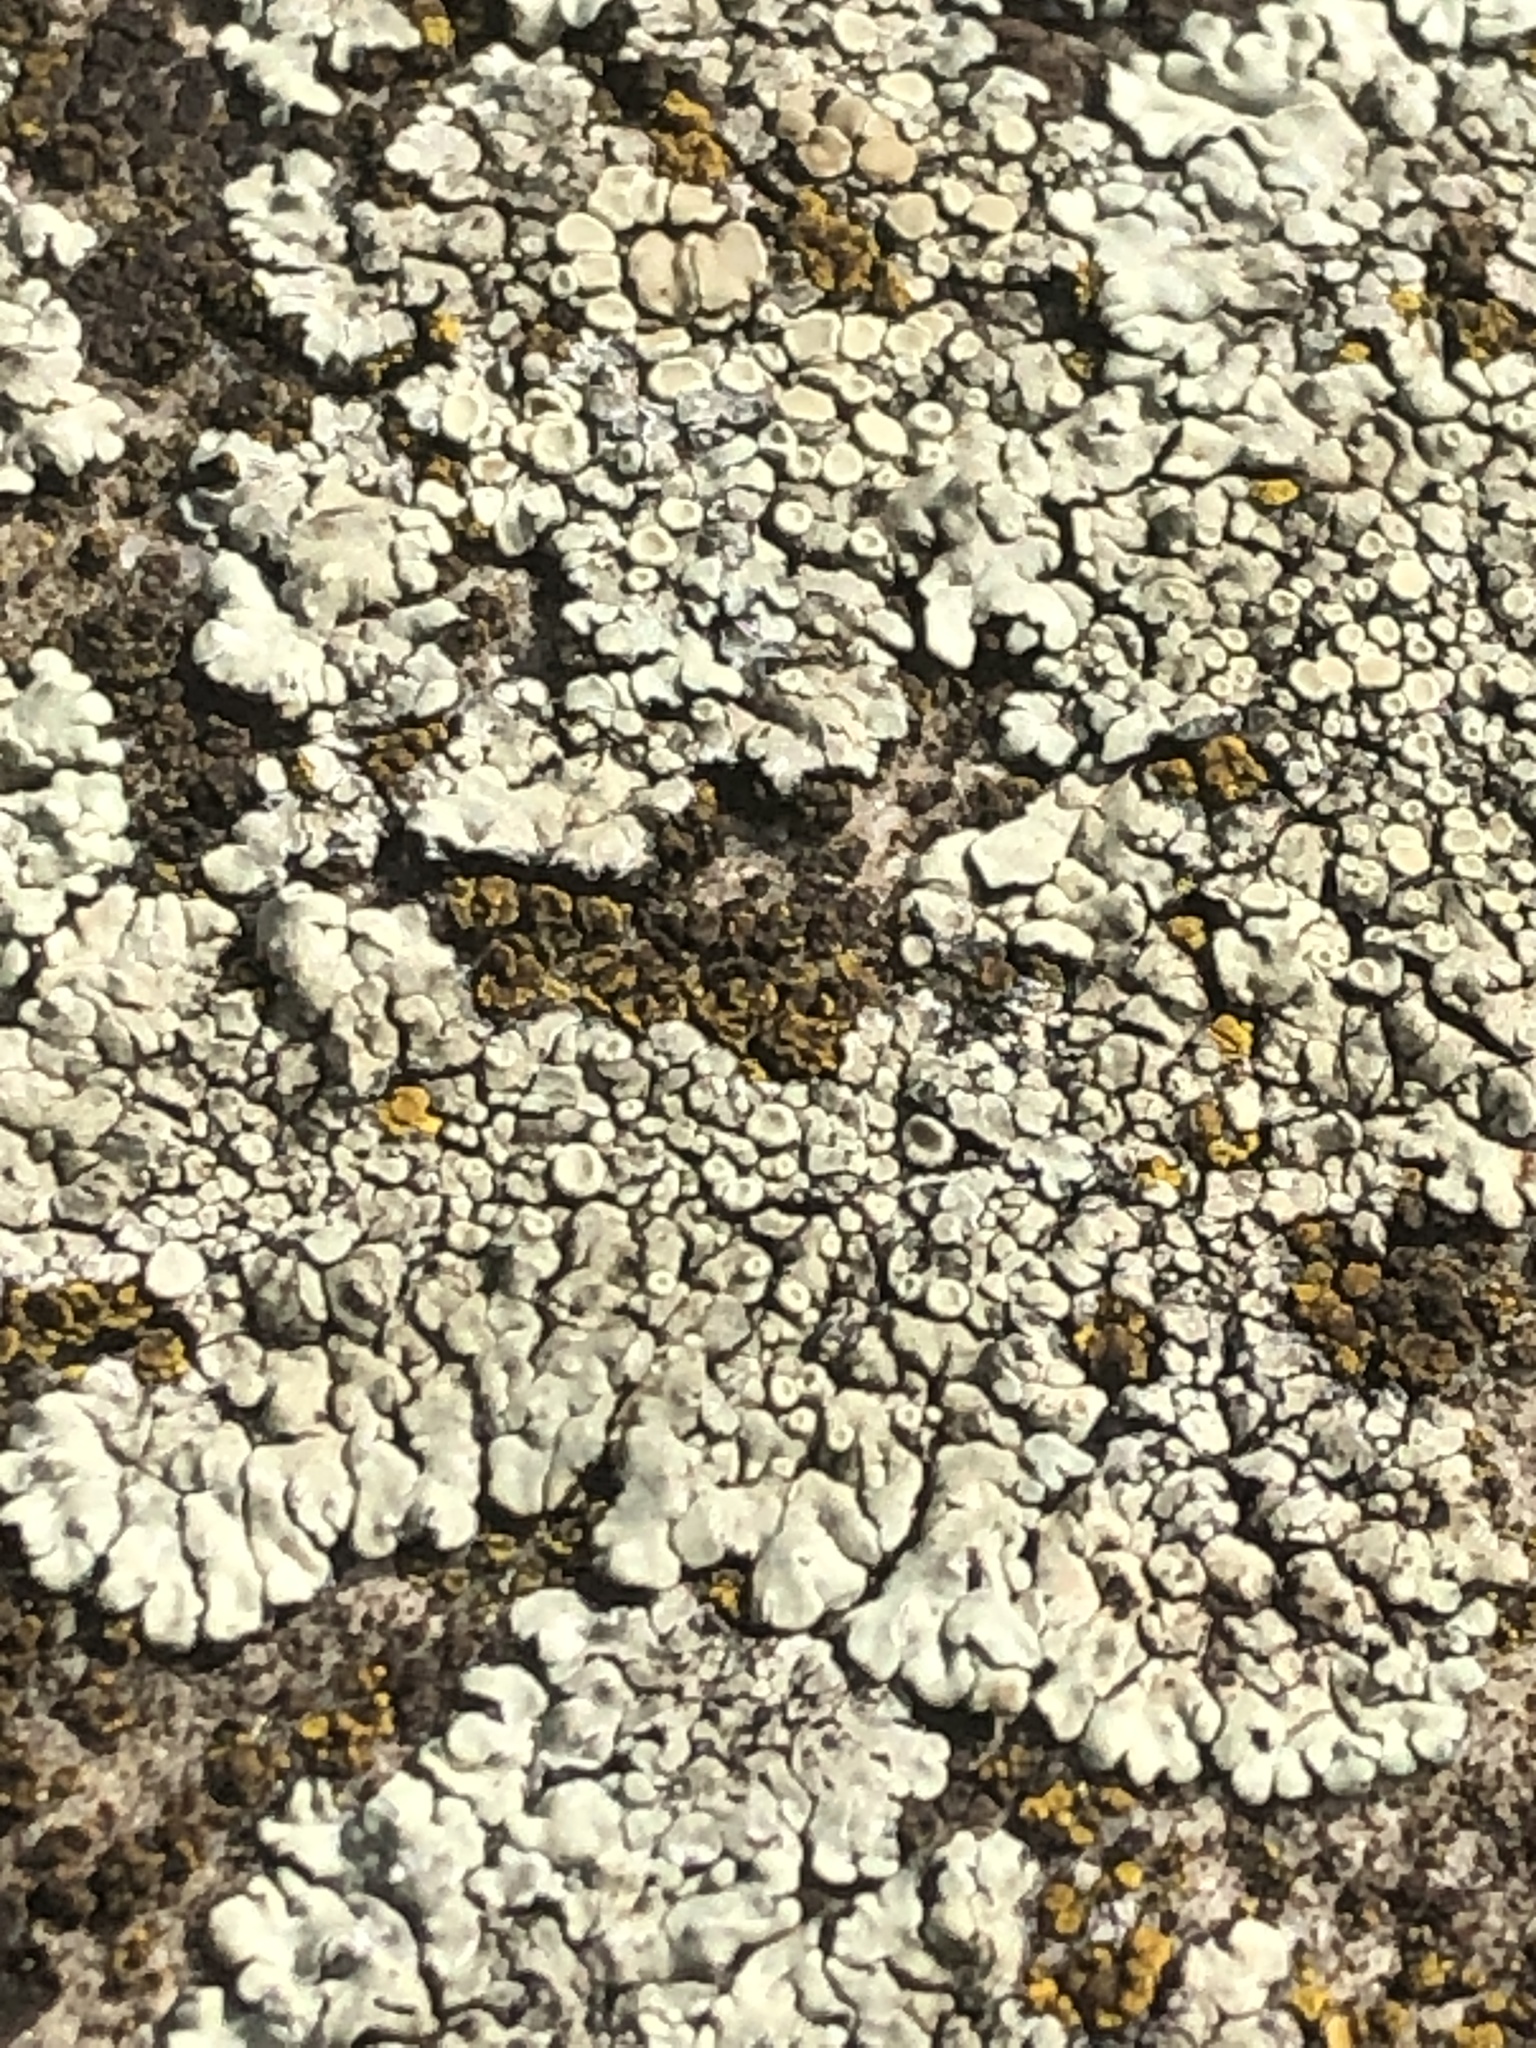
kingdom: Fungi
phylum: Ascomycota
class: Lecanoromycetes
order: Lecanorales
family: Lecanoraceae
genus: Protoparmeliopsis
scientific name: Protoparmeliopsis muralis
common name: Stonewall rim lichen
